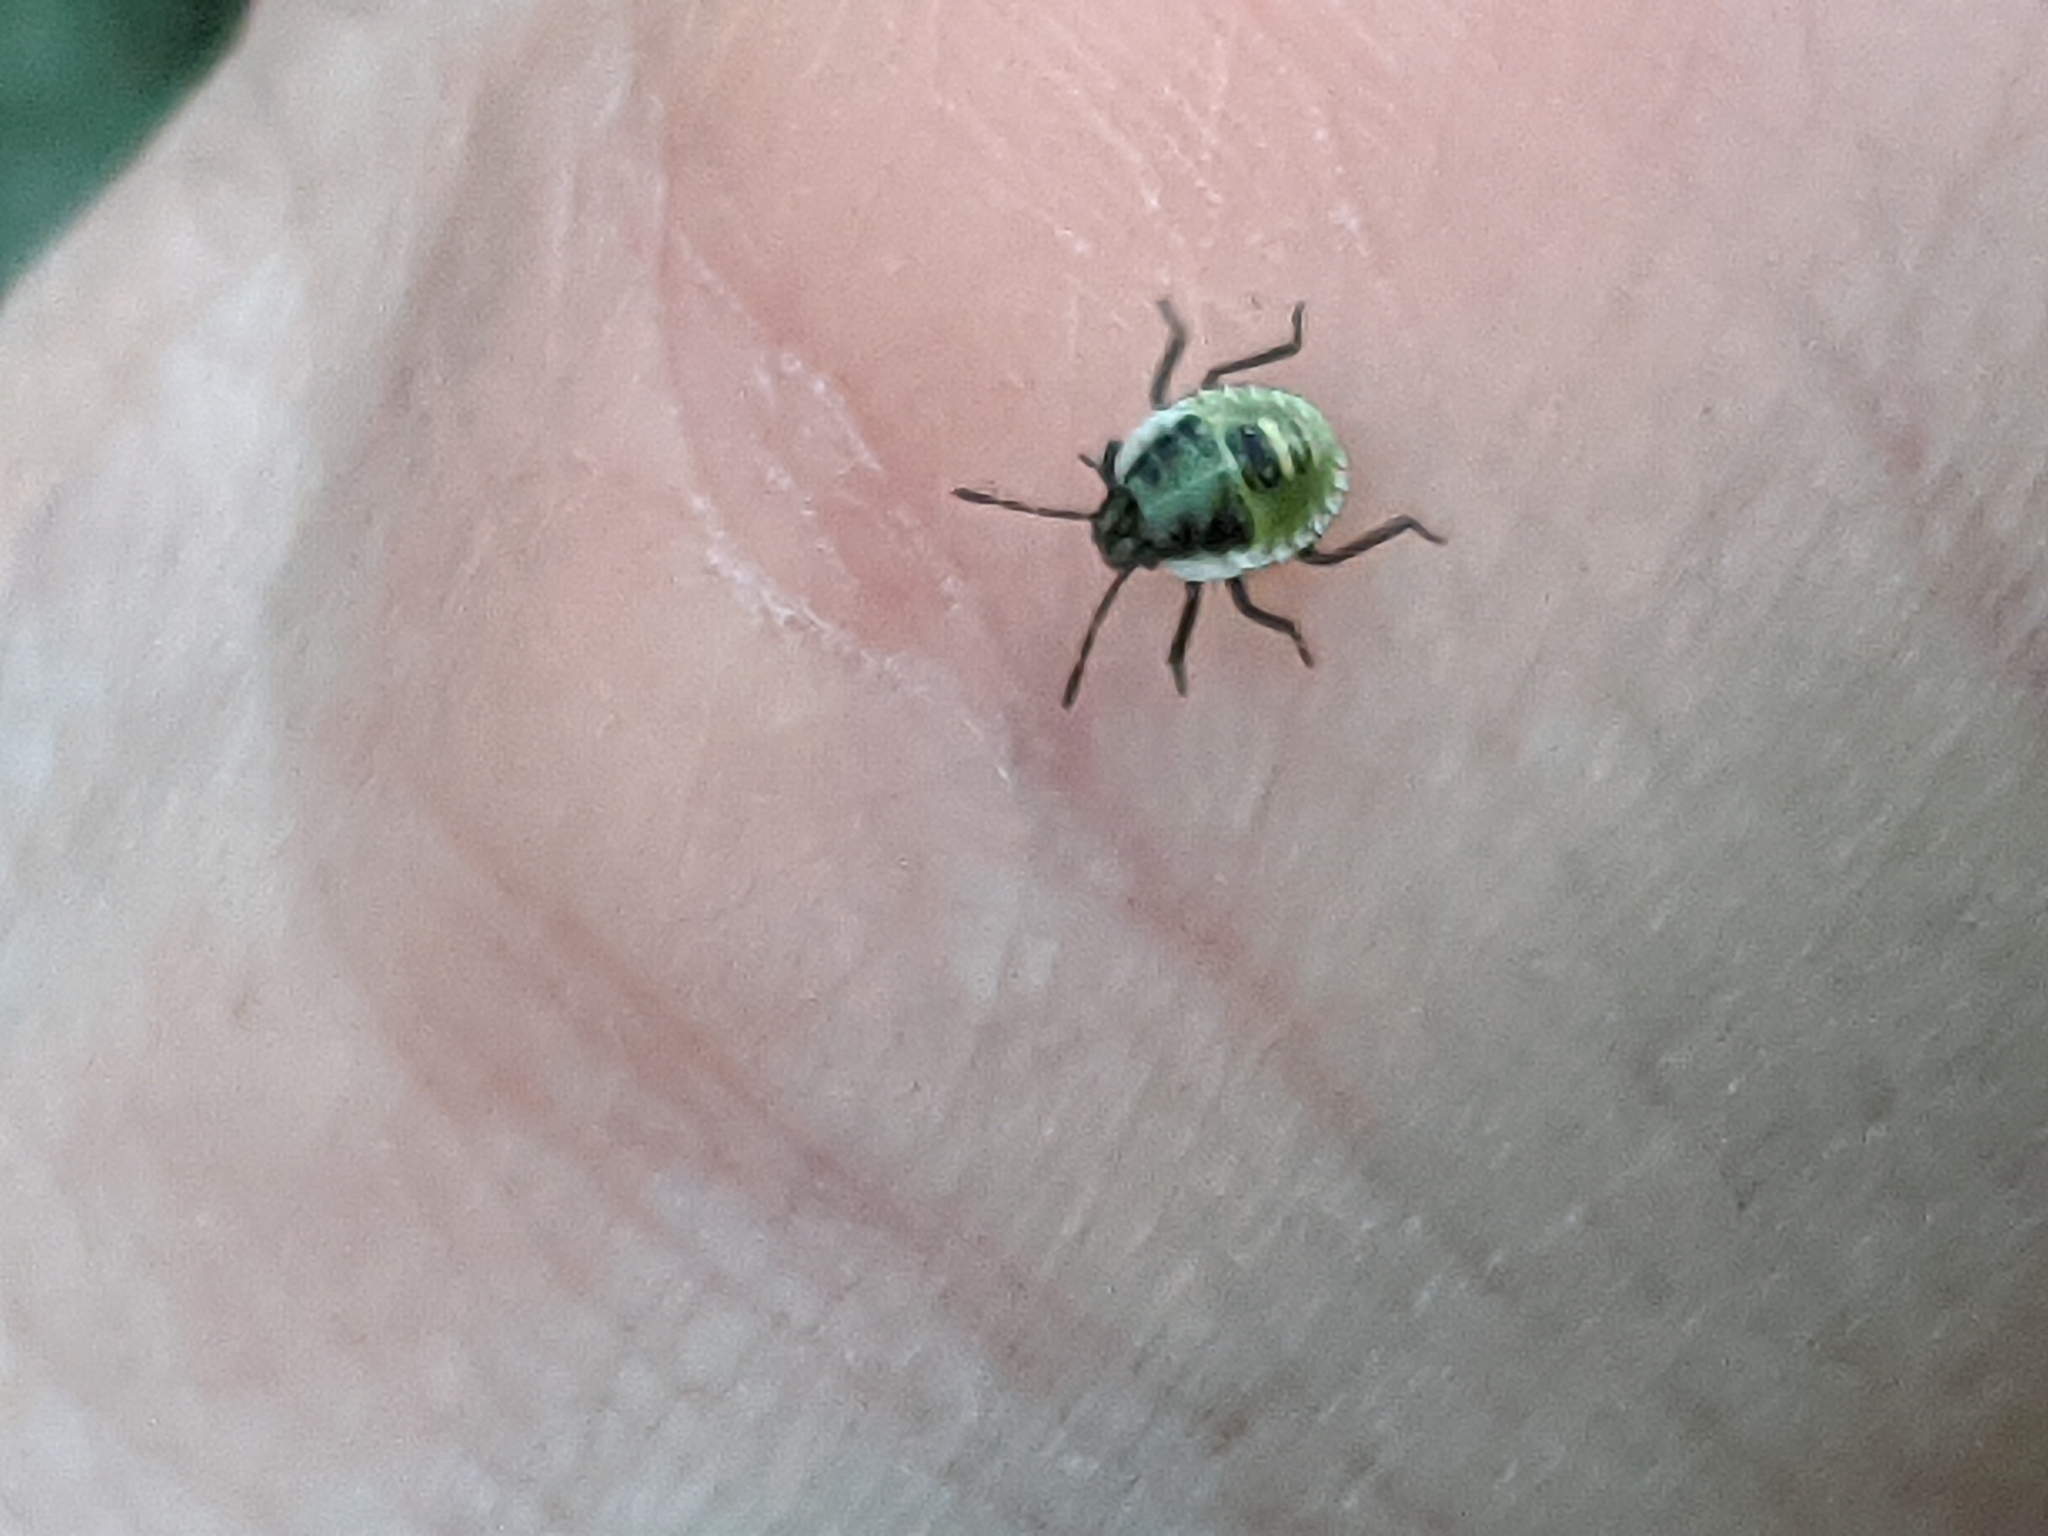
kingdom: Animalia
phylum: Arthropoda
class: Insecta
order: Hemiptera
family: Pentatomidae
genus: Palomena
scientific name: Palomena prasina
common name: Green shieldbug
